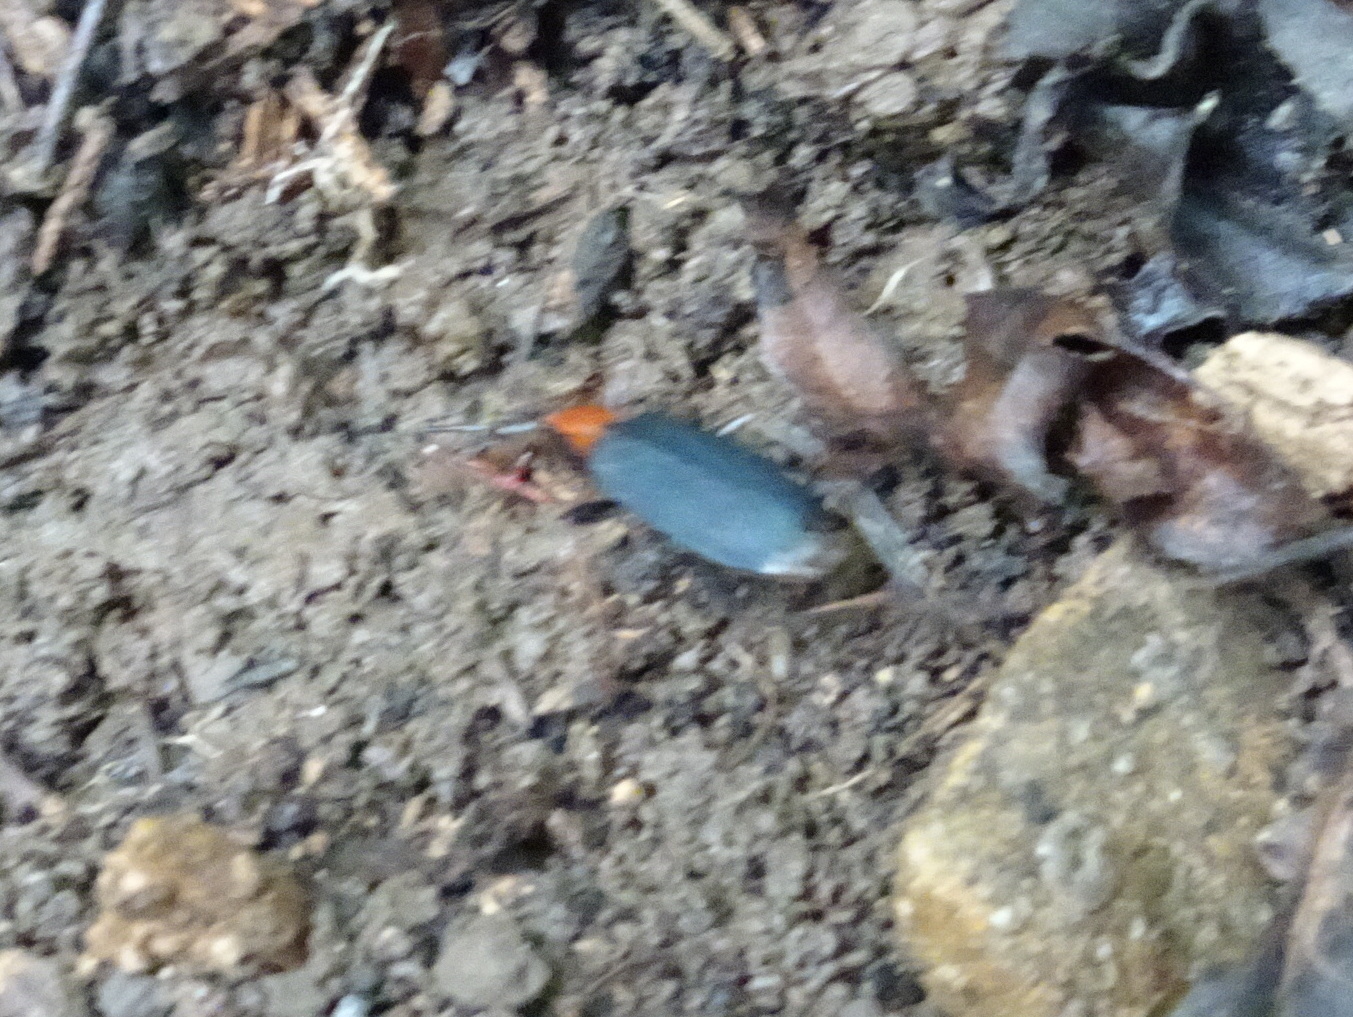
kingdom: Animalia
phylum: Arthropoda
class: Insecta
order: Coleoptera
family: Carabidae
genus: Galerita
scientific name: Galerita bicolor
